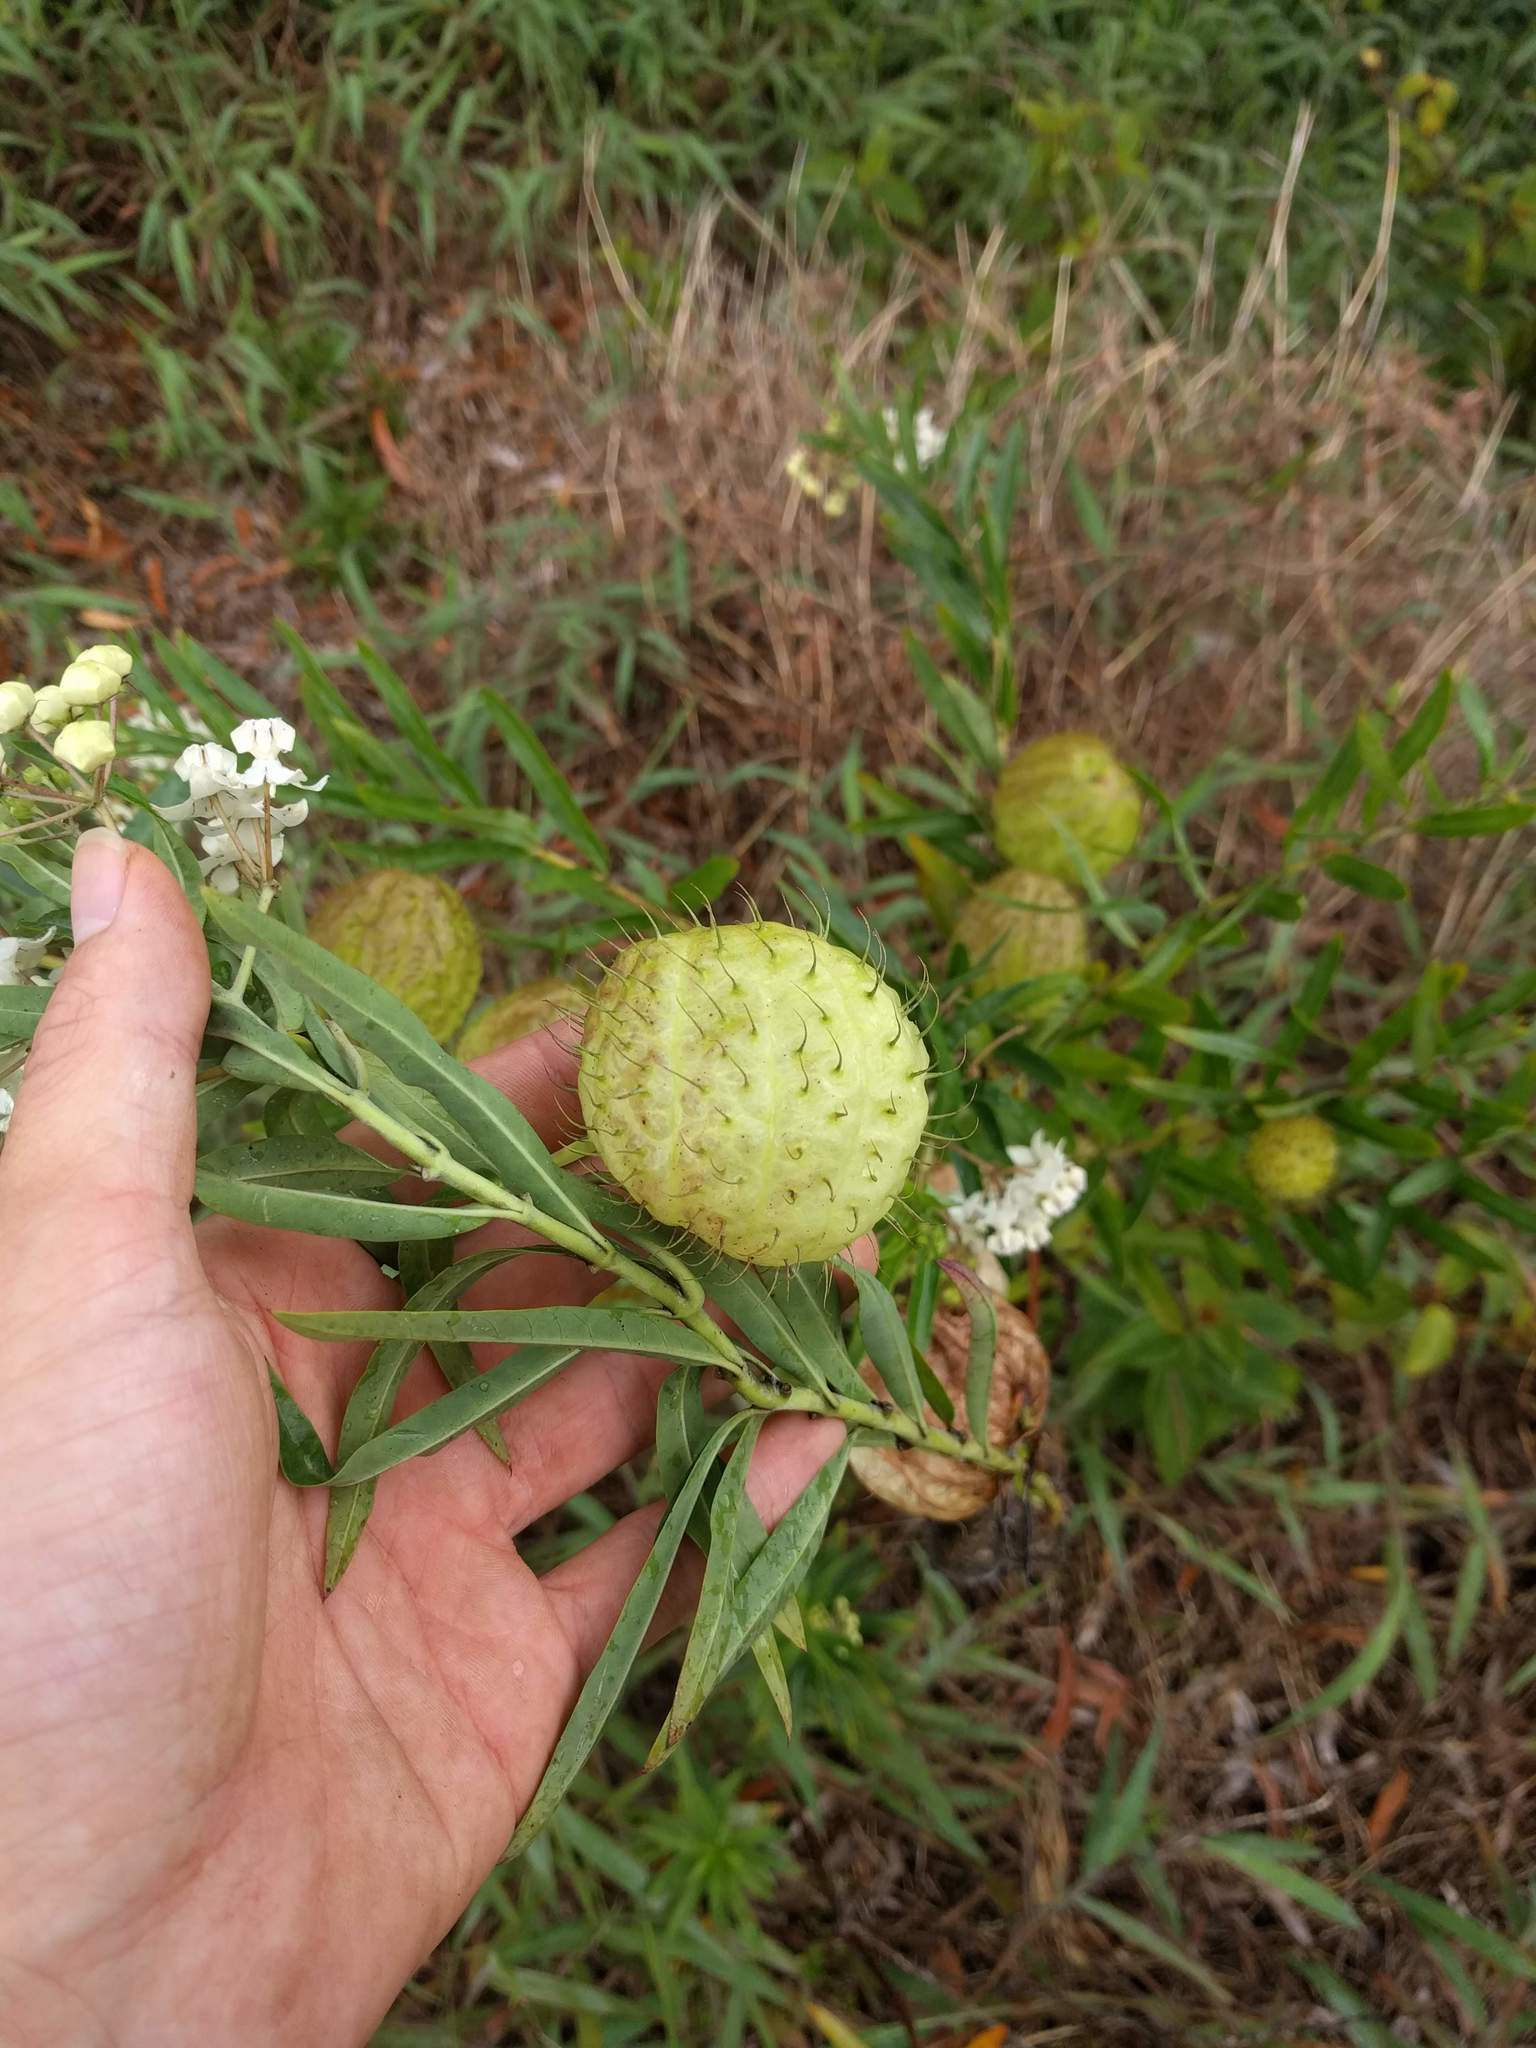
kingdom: Plantae
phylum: Tracheophyta
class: Magnoliopsida
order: Gentianales
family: Apocynaceae
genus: Gomphocarpus
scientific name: Gomphocarpus physocarpus
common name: Balloon cotton bush
